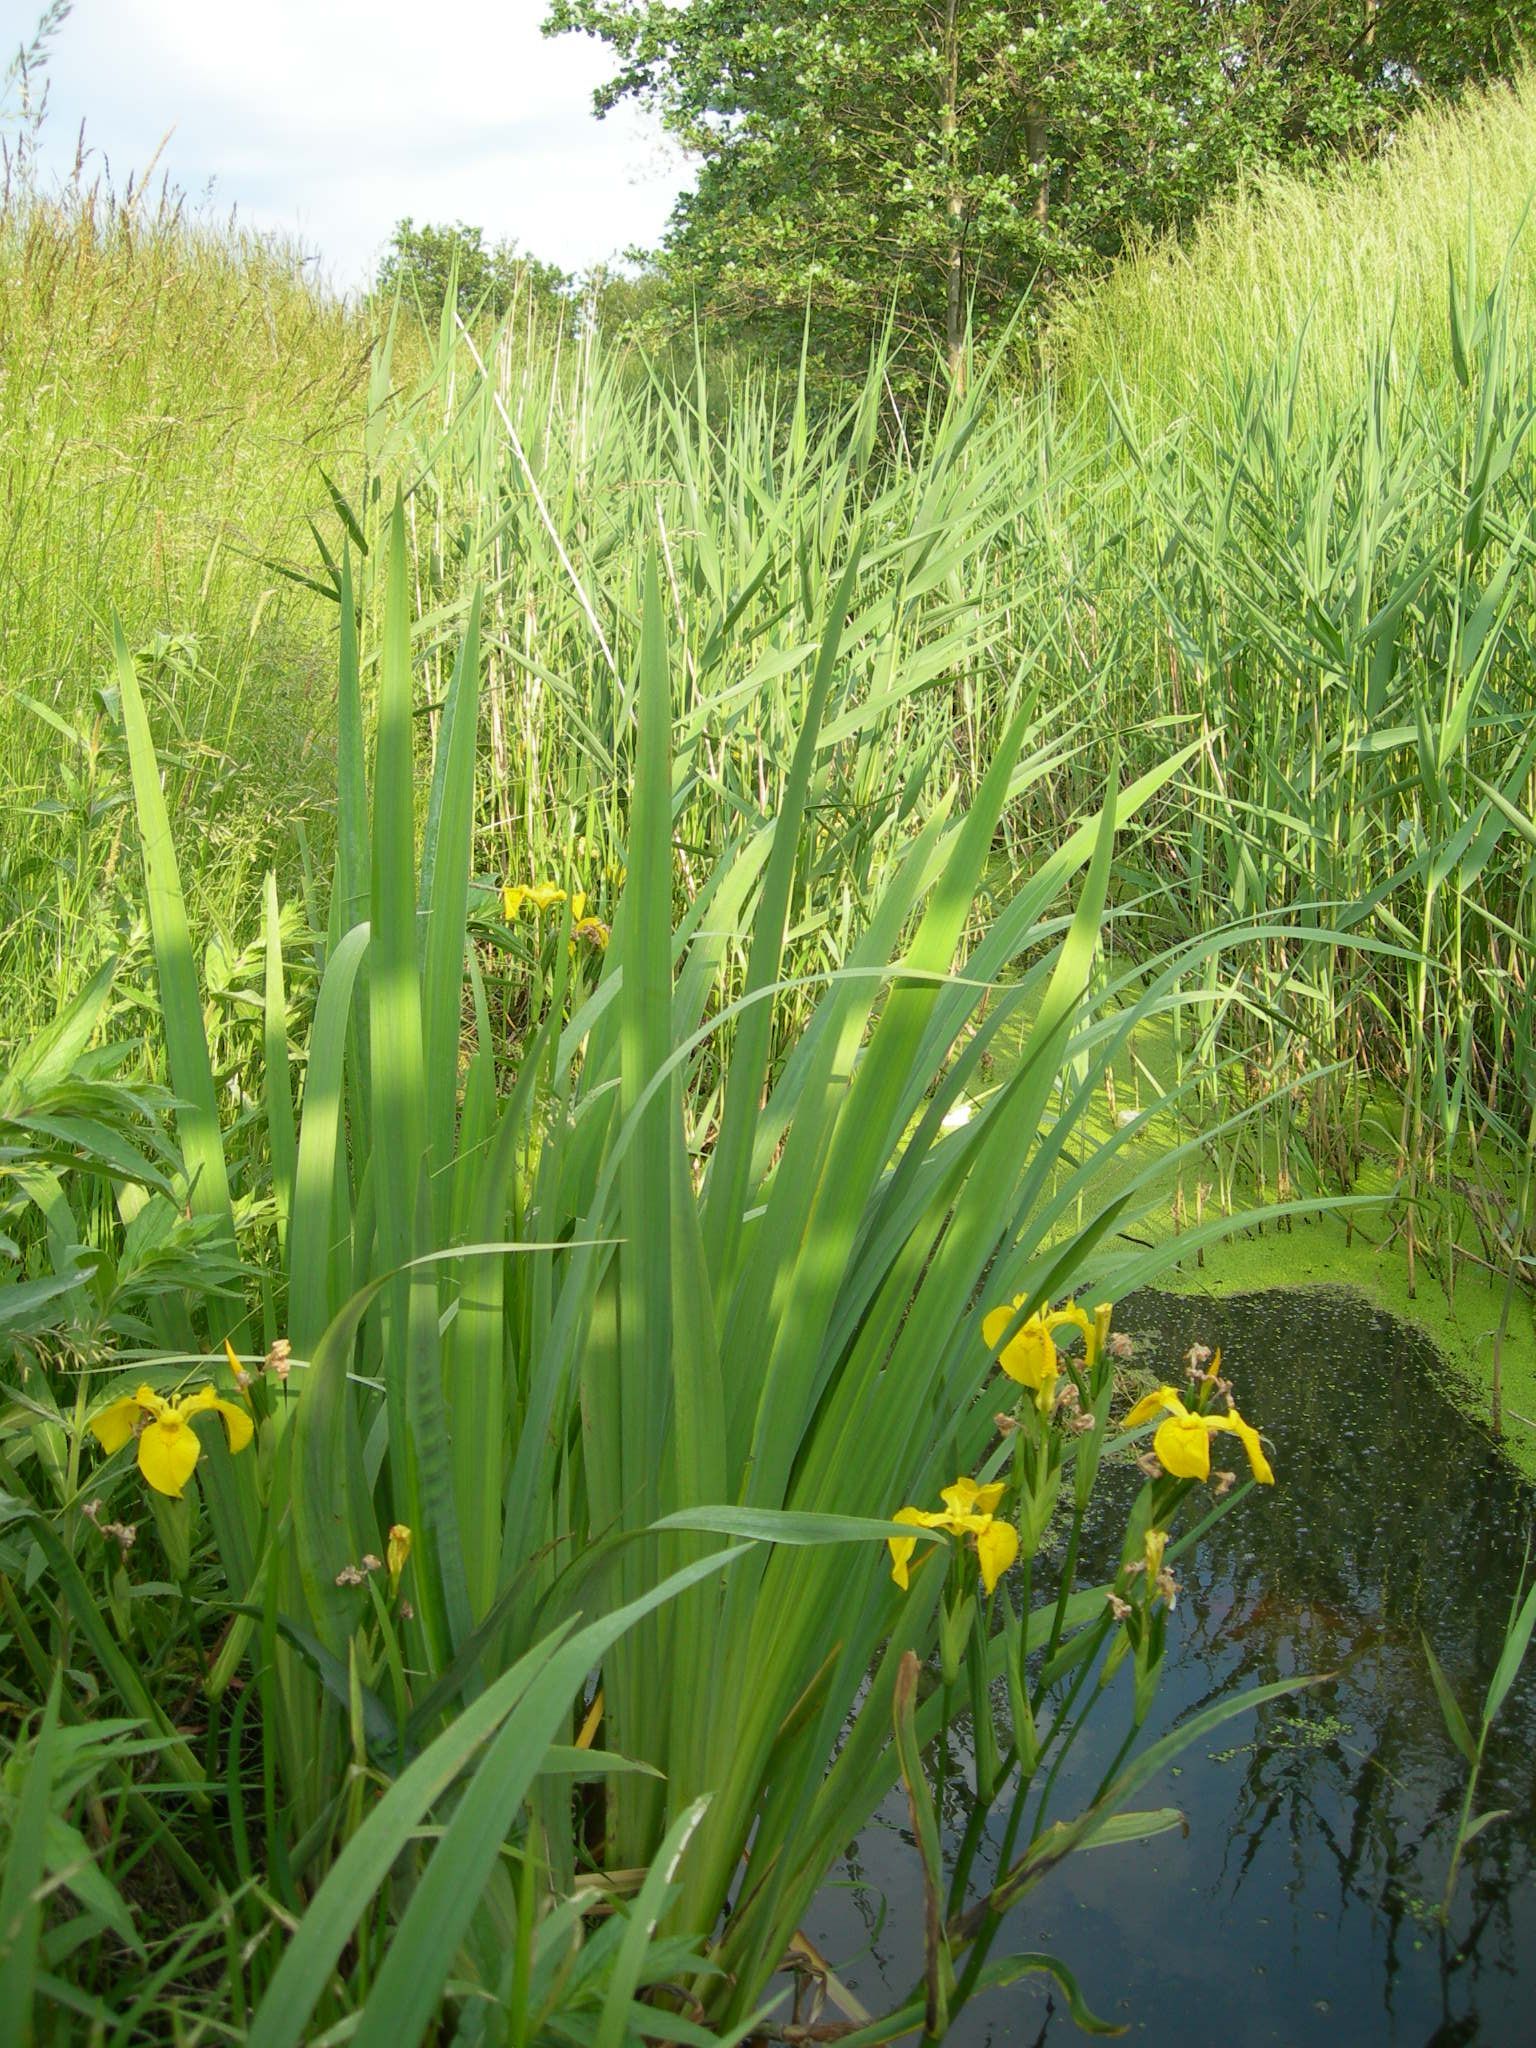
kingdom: Plantae
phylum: Tracheophyta
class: Liliopsida
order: Asparagales
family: Iridaceae
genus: Iris
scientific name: Iris pseudacorus
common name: Yellow flag
